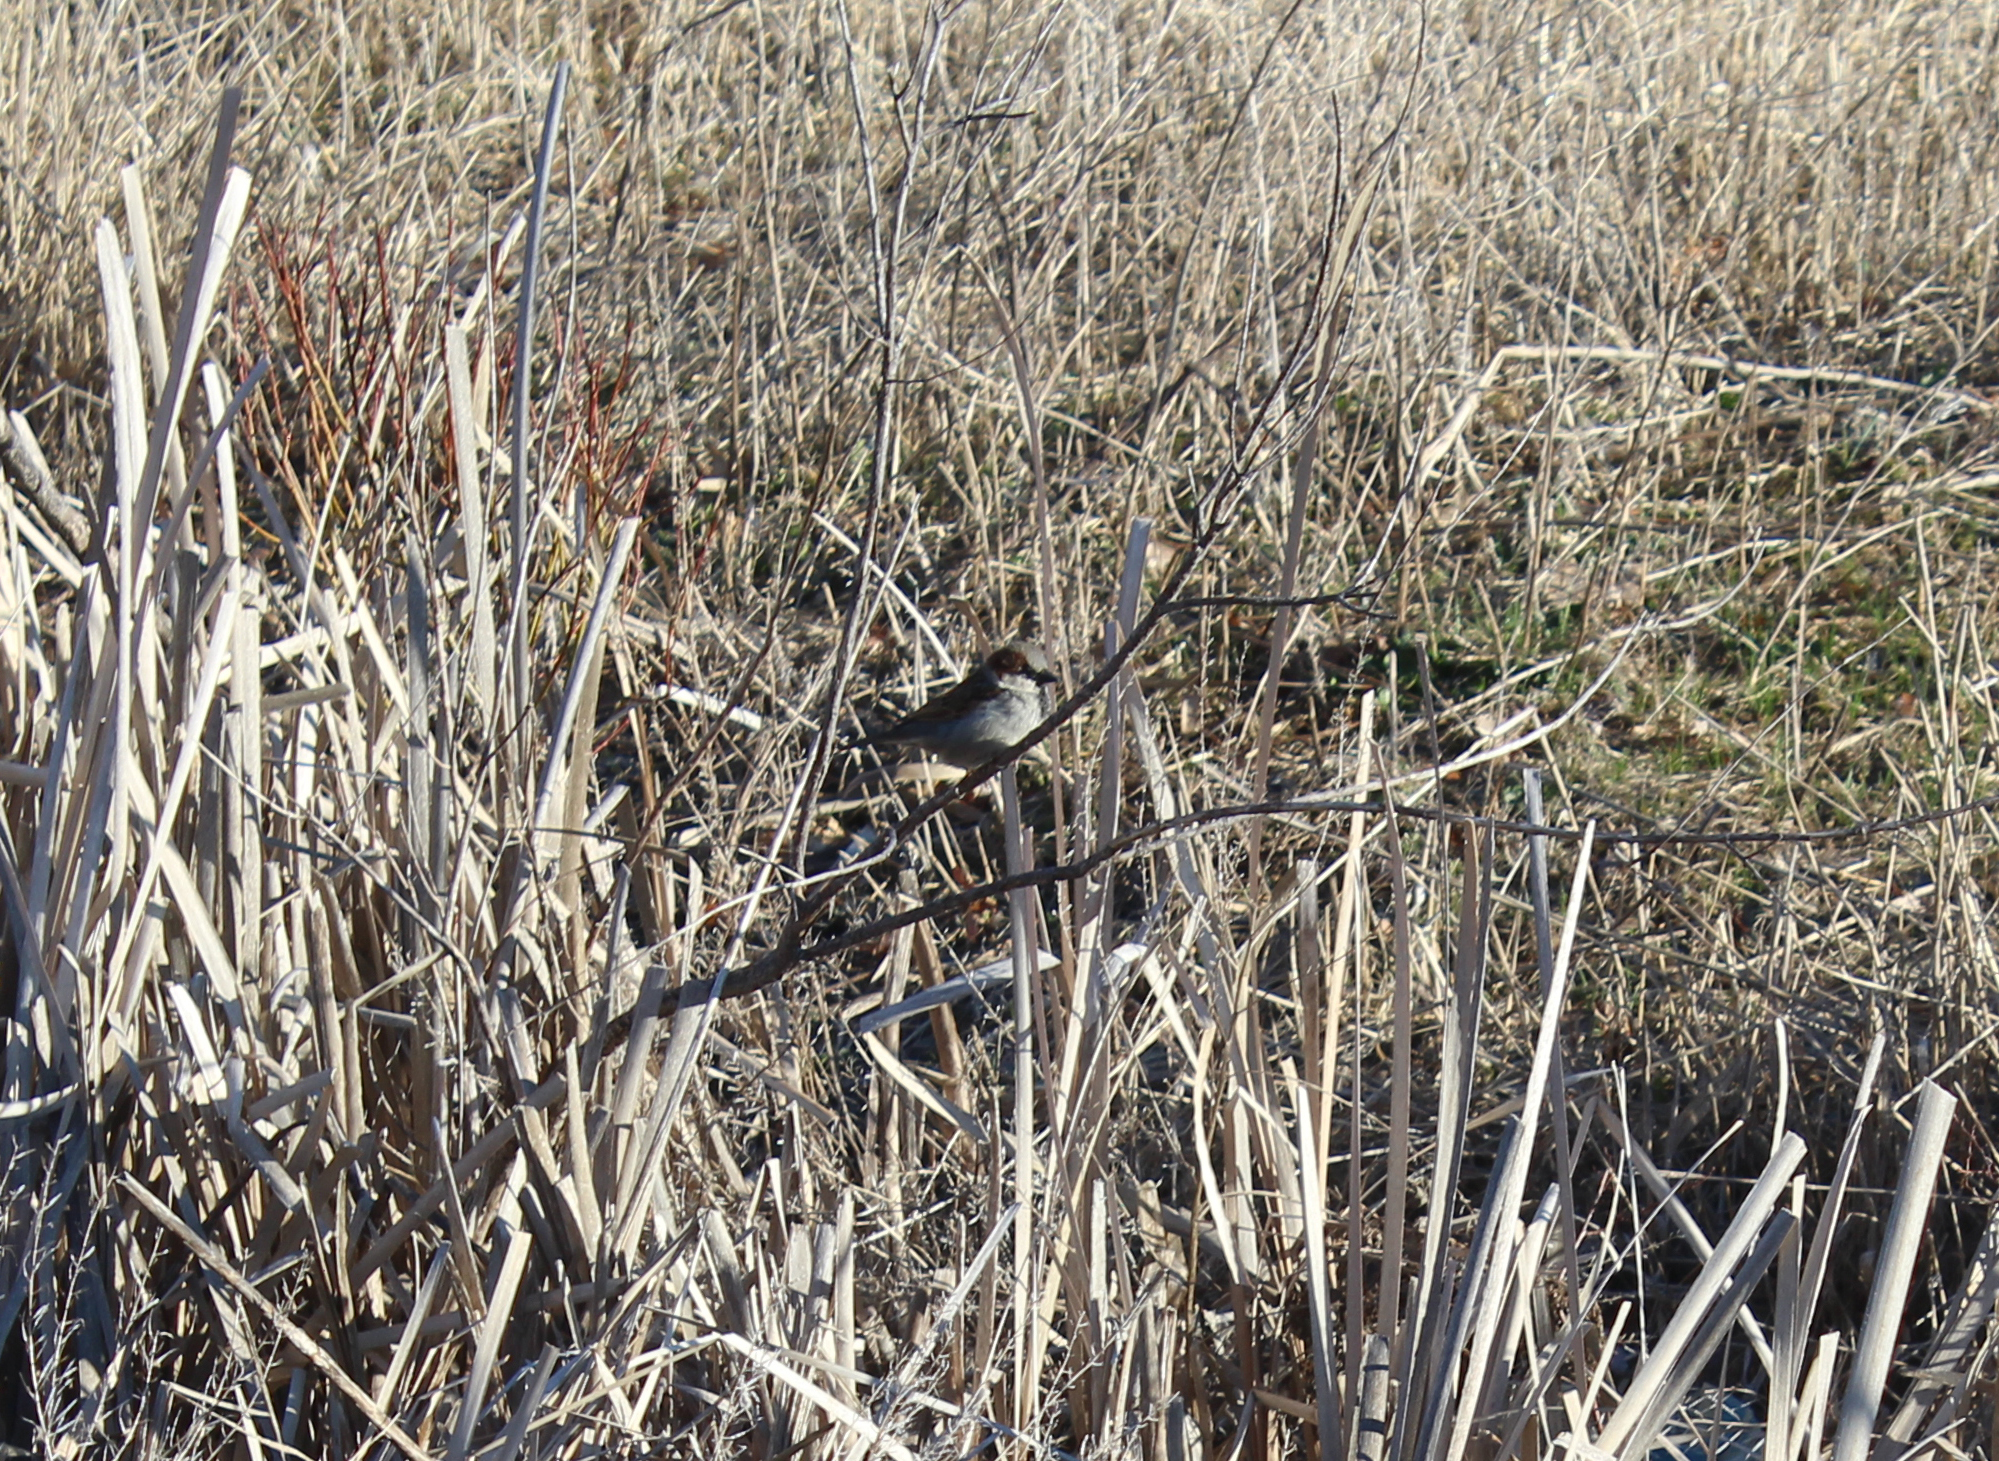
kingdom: Animalia
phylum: Chordata
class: Aves
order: Passeriformes
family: Passeridae
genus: Passer
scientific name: Passer domesticus
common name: House sparrow
